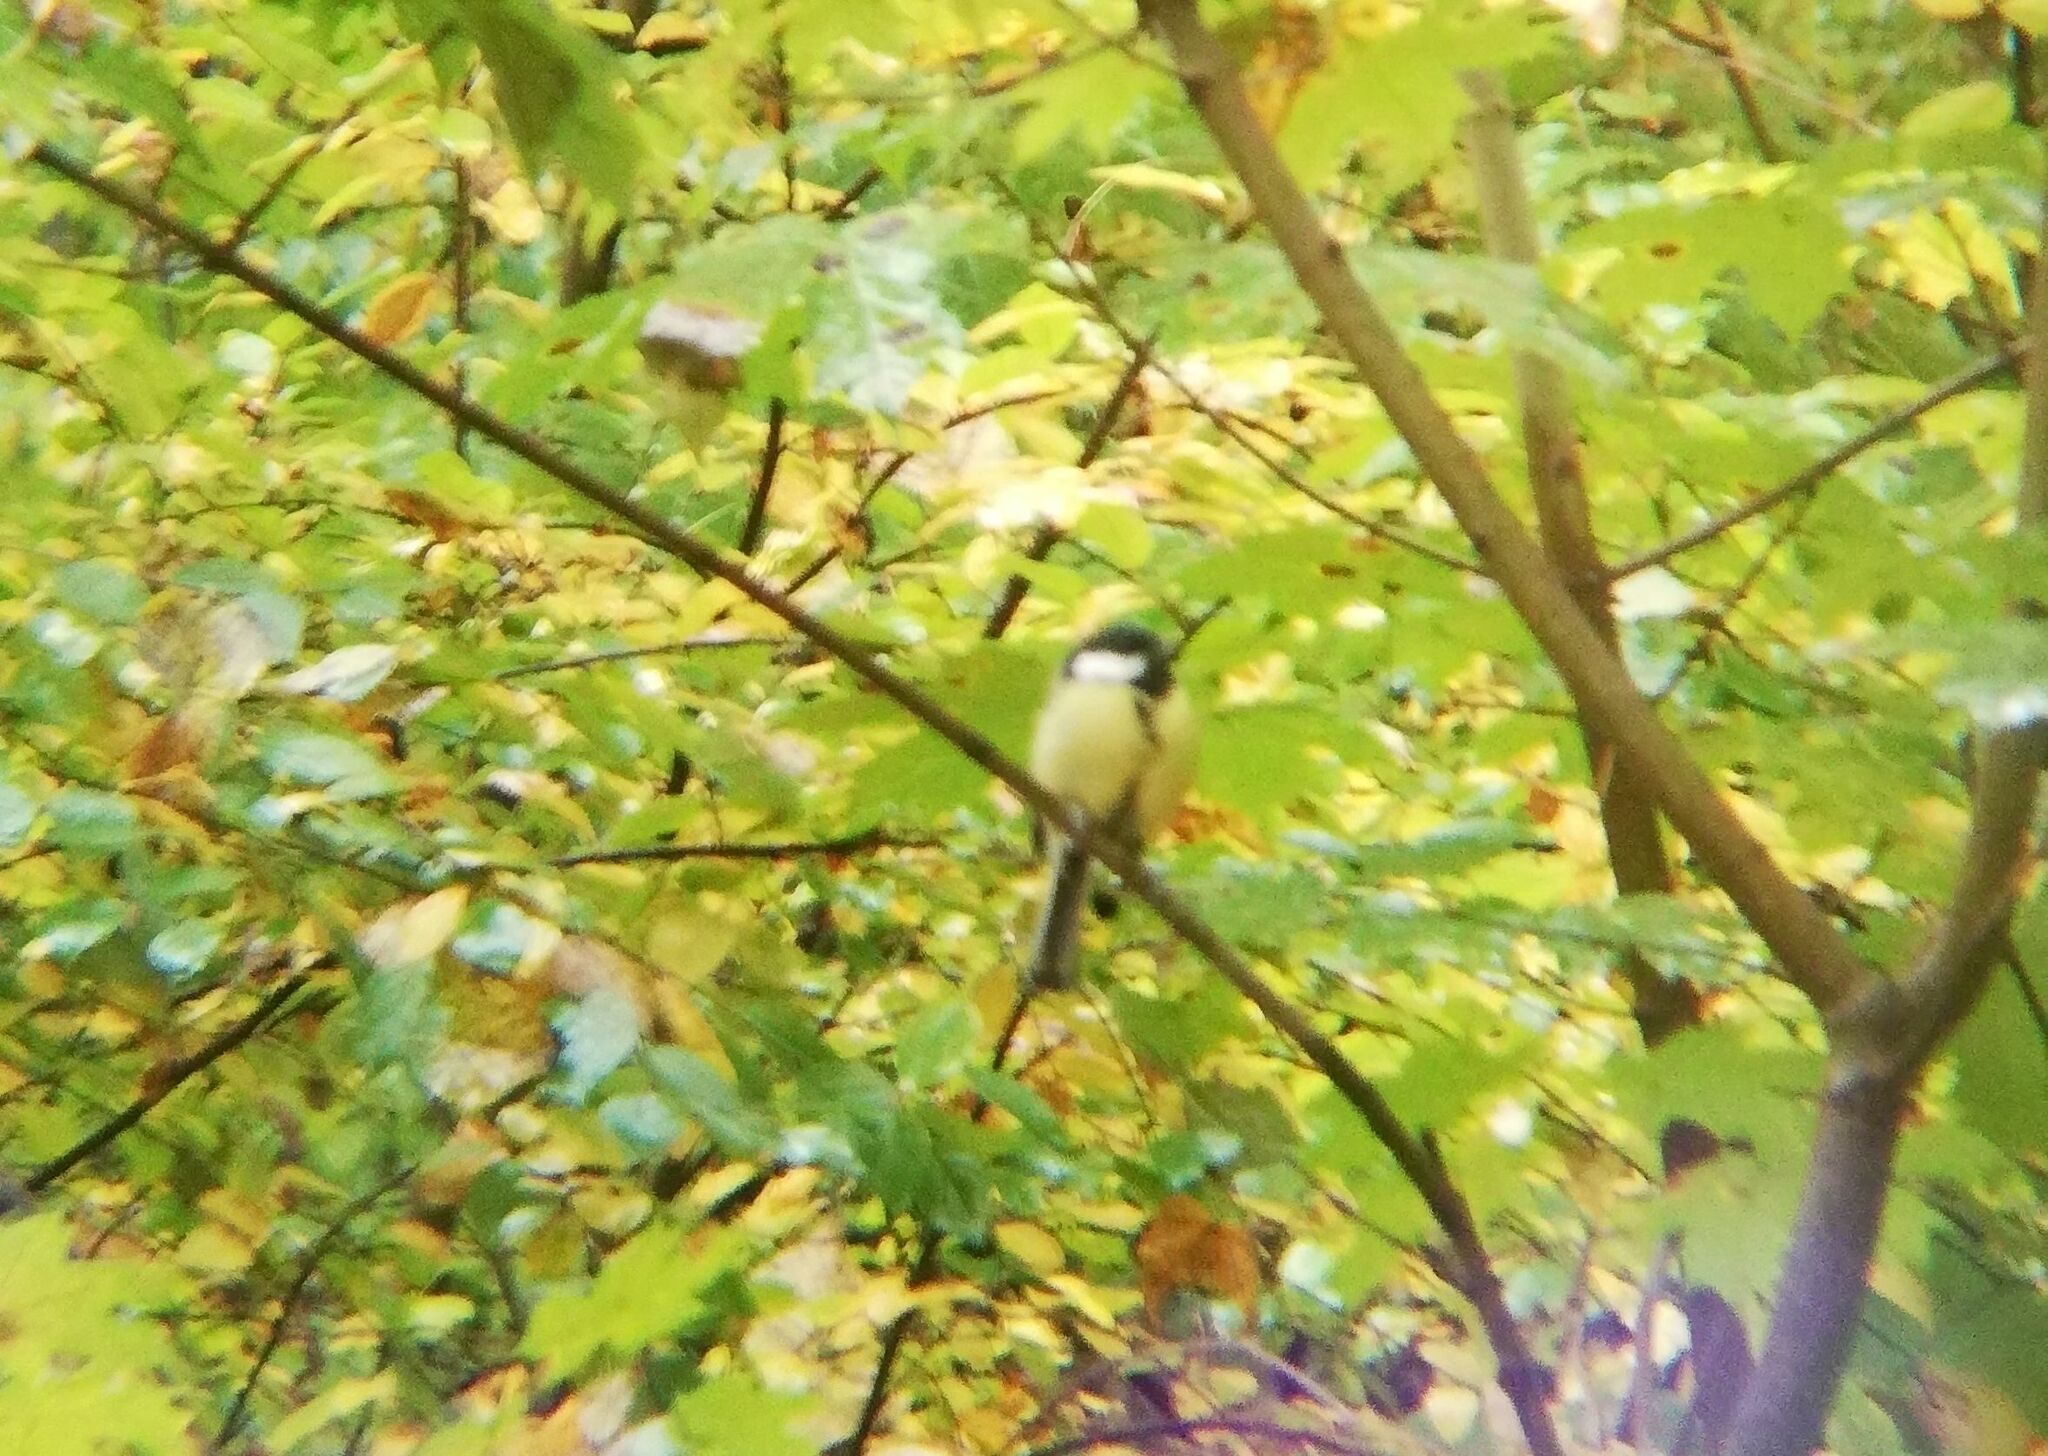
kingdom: Animalia
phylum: Chordata
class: Aves
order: Passeriformes
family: Paridae
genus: Parus
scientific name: Parus major
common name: Great tit
